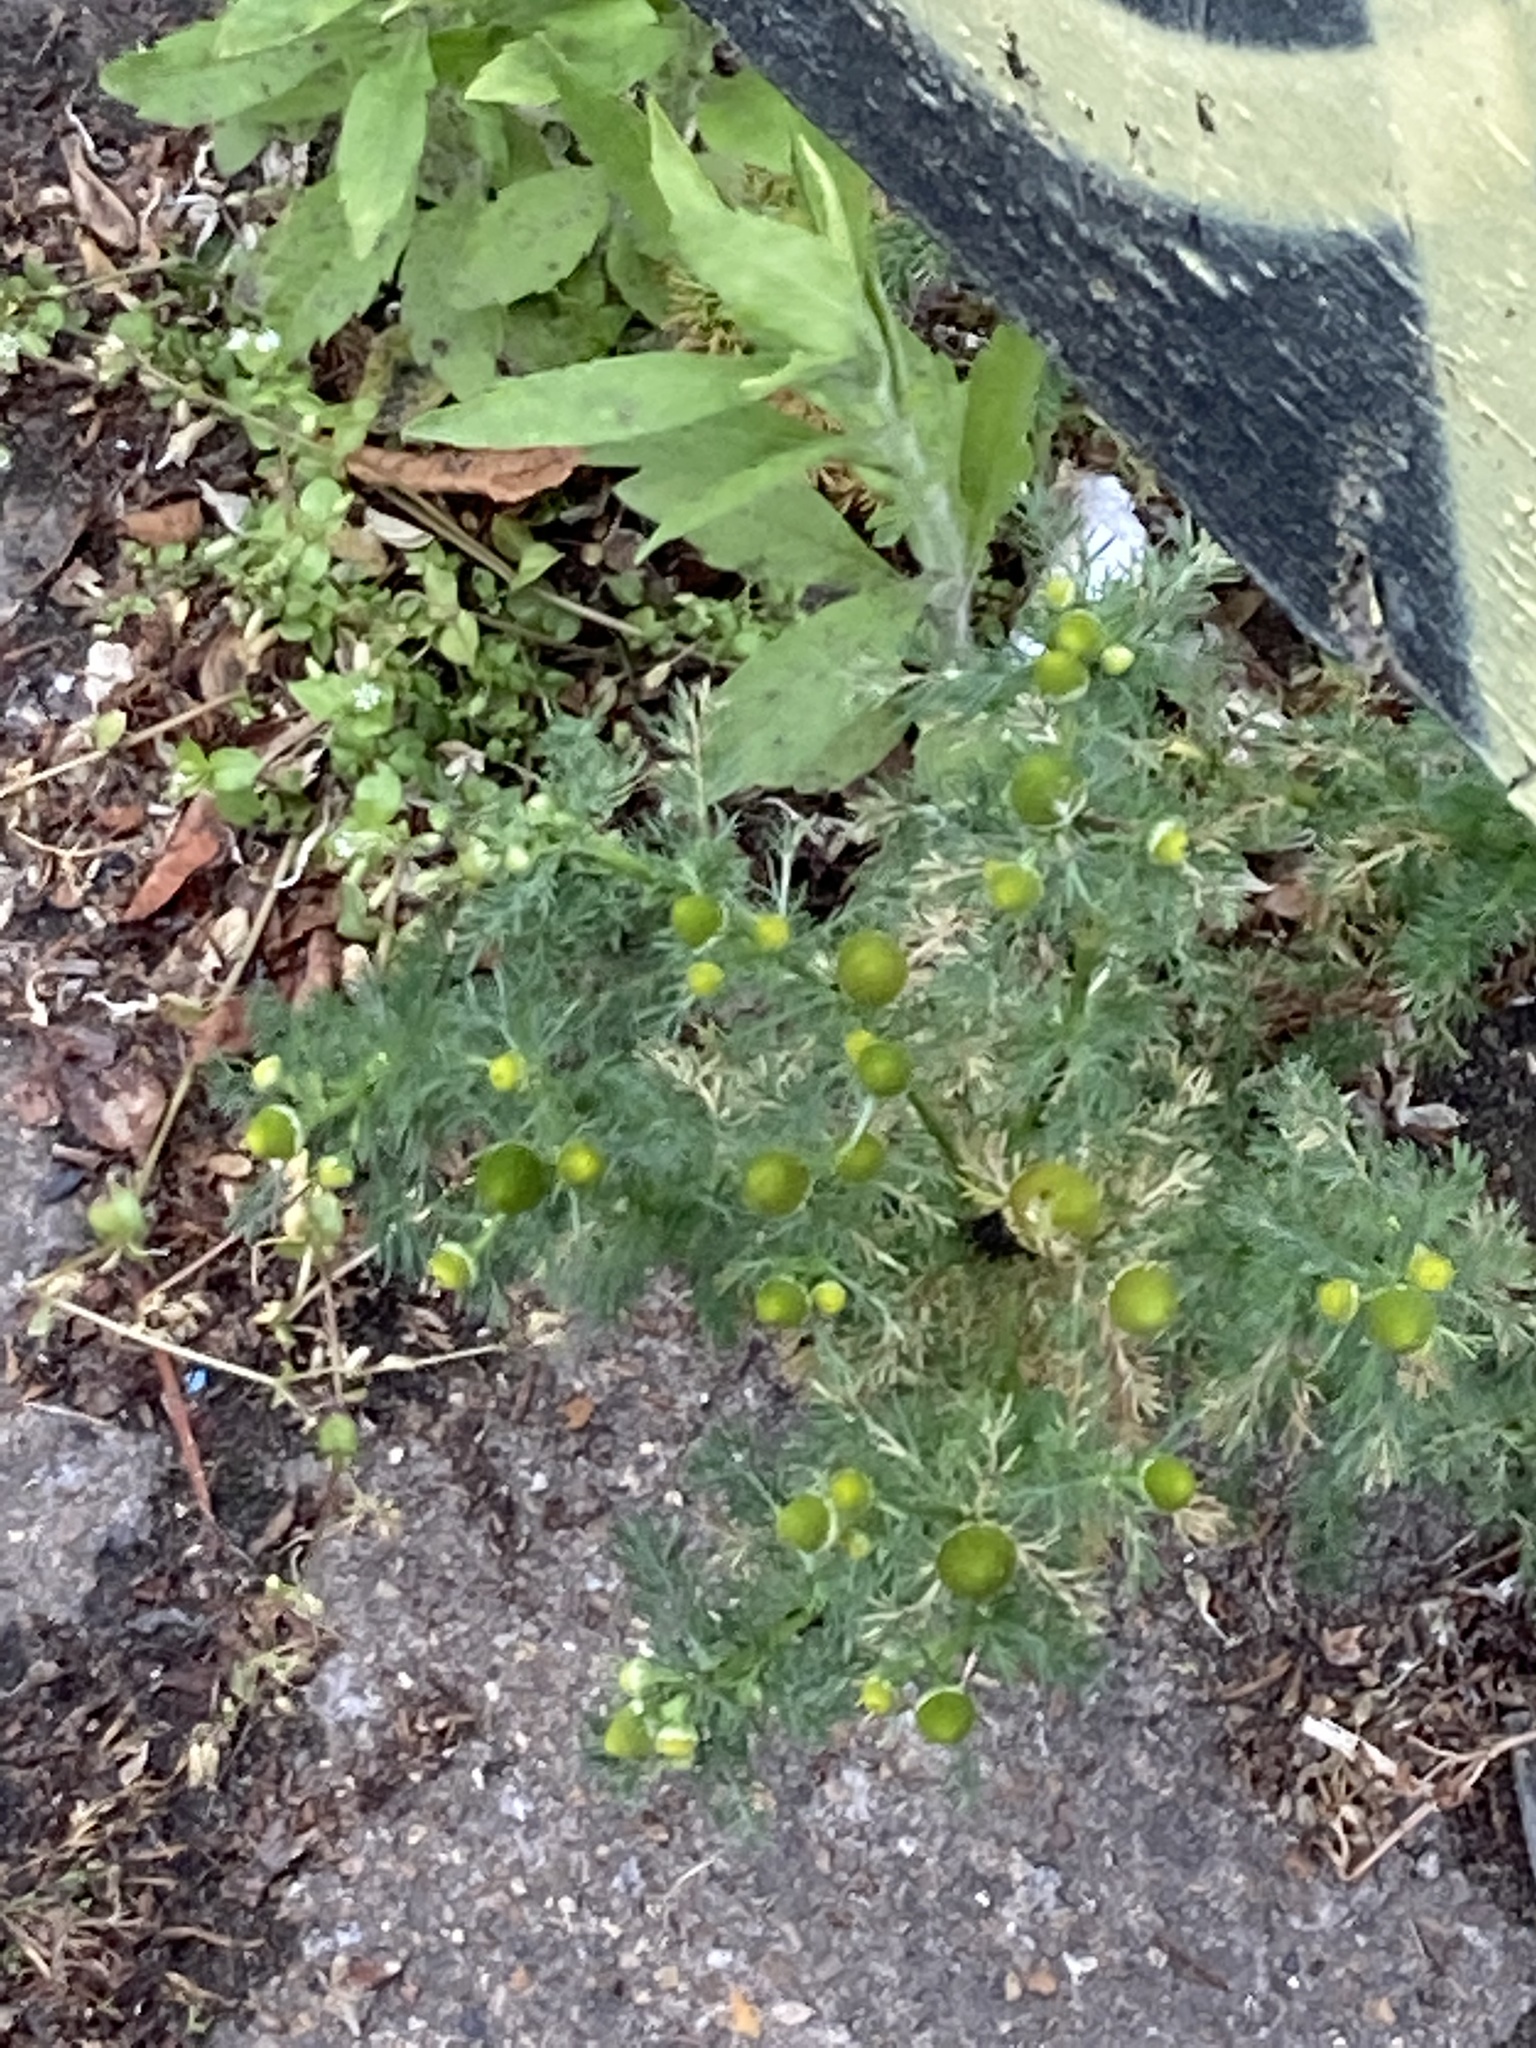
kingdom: Plantae
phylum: Tracheophyta
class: Magnoliopsida
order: Asterales
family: Asteraceae
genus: Matricaria
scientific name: Matricaria discoidea
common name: Disc mayweed
